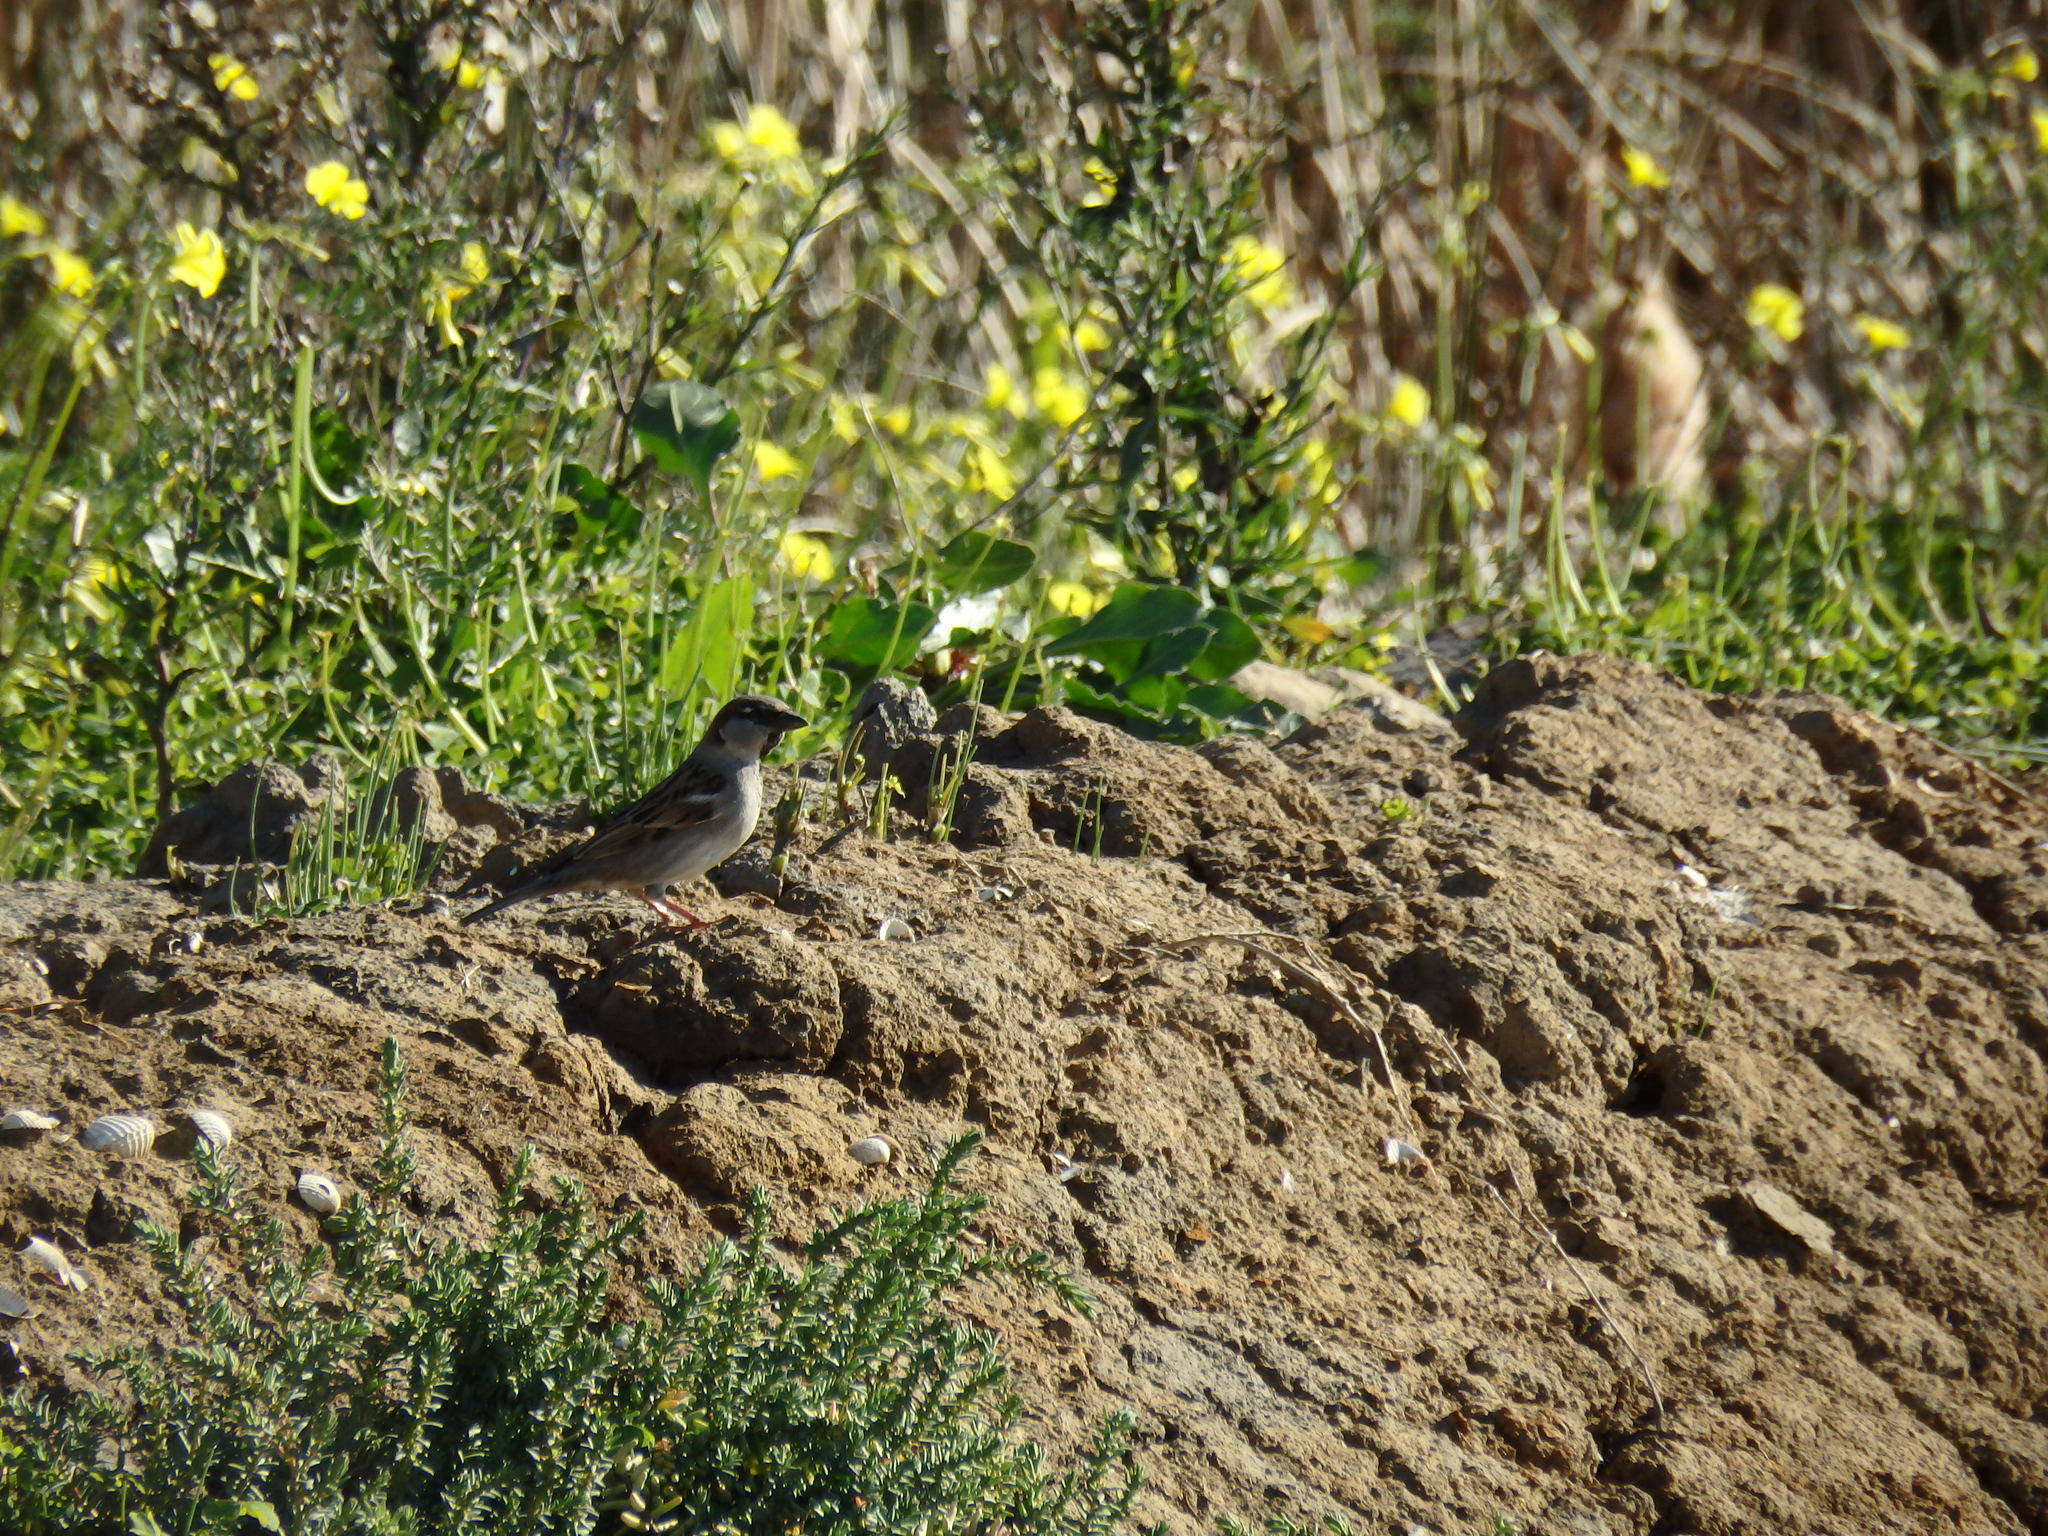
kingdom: Animalia
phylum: Chordata
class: Aves
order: Passeriformes
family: Passeridae
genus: Passer
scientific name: Passer domesticus
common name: House sparrow
